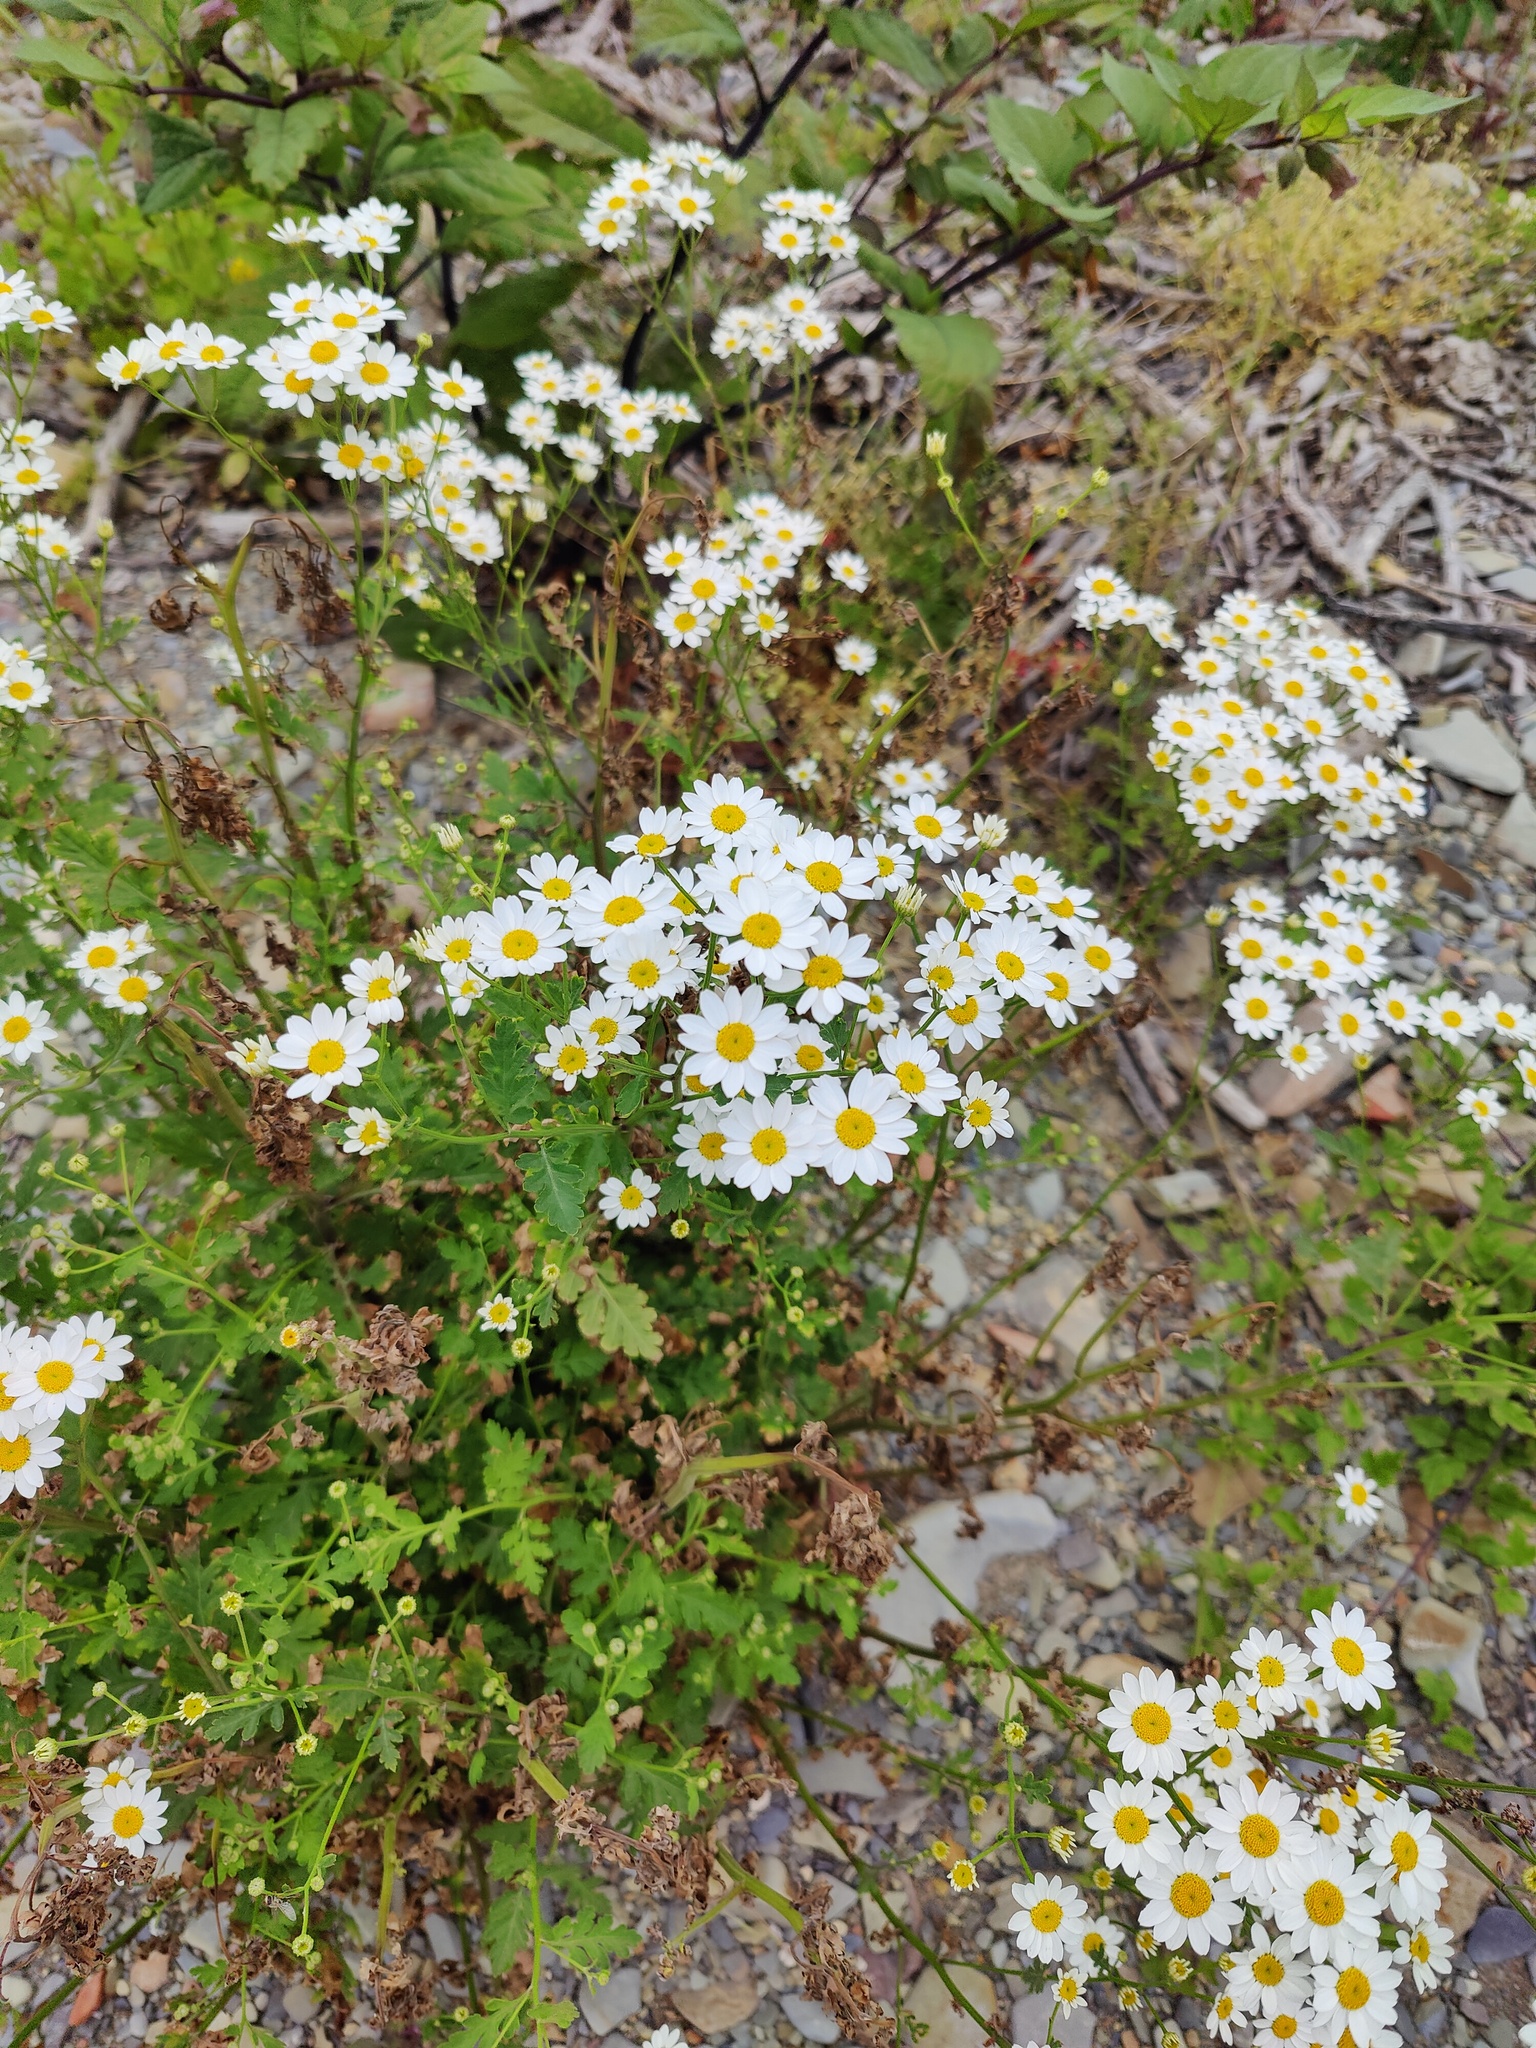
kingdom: Plantae
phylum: Tracheophyta
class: Magnoliopsida
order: Asterales
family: Asteraceae
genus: Tanacetum
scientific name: Tanacetum partheniifolium
